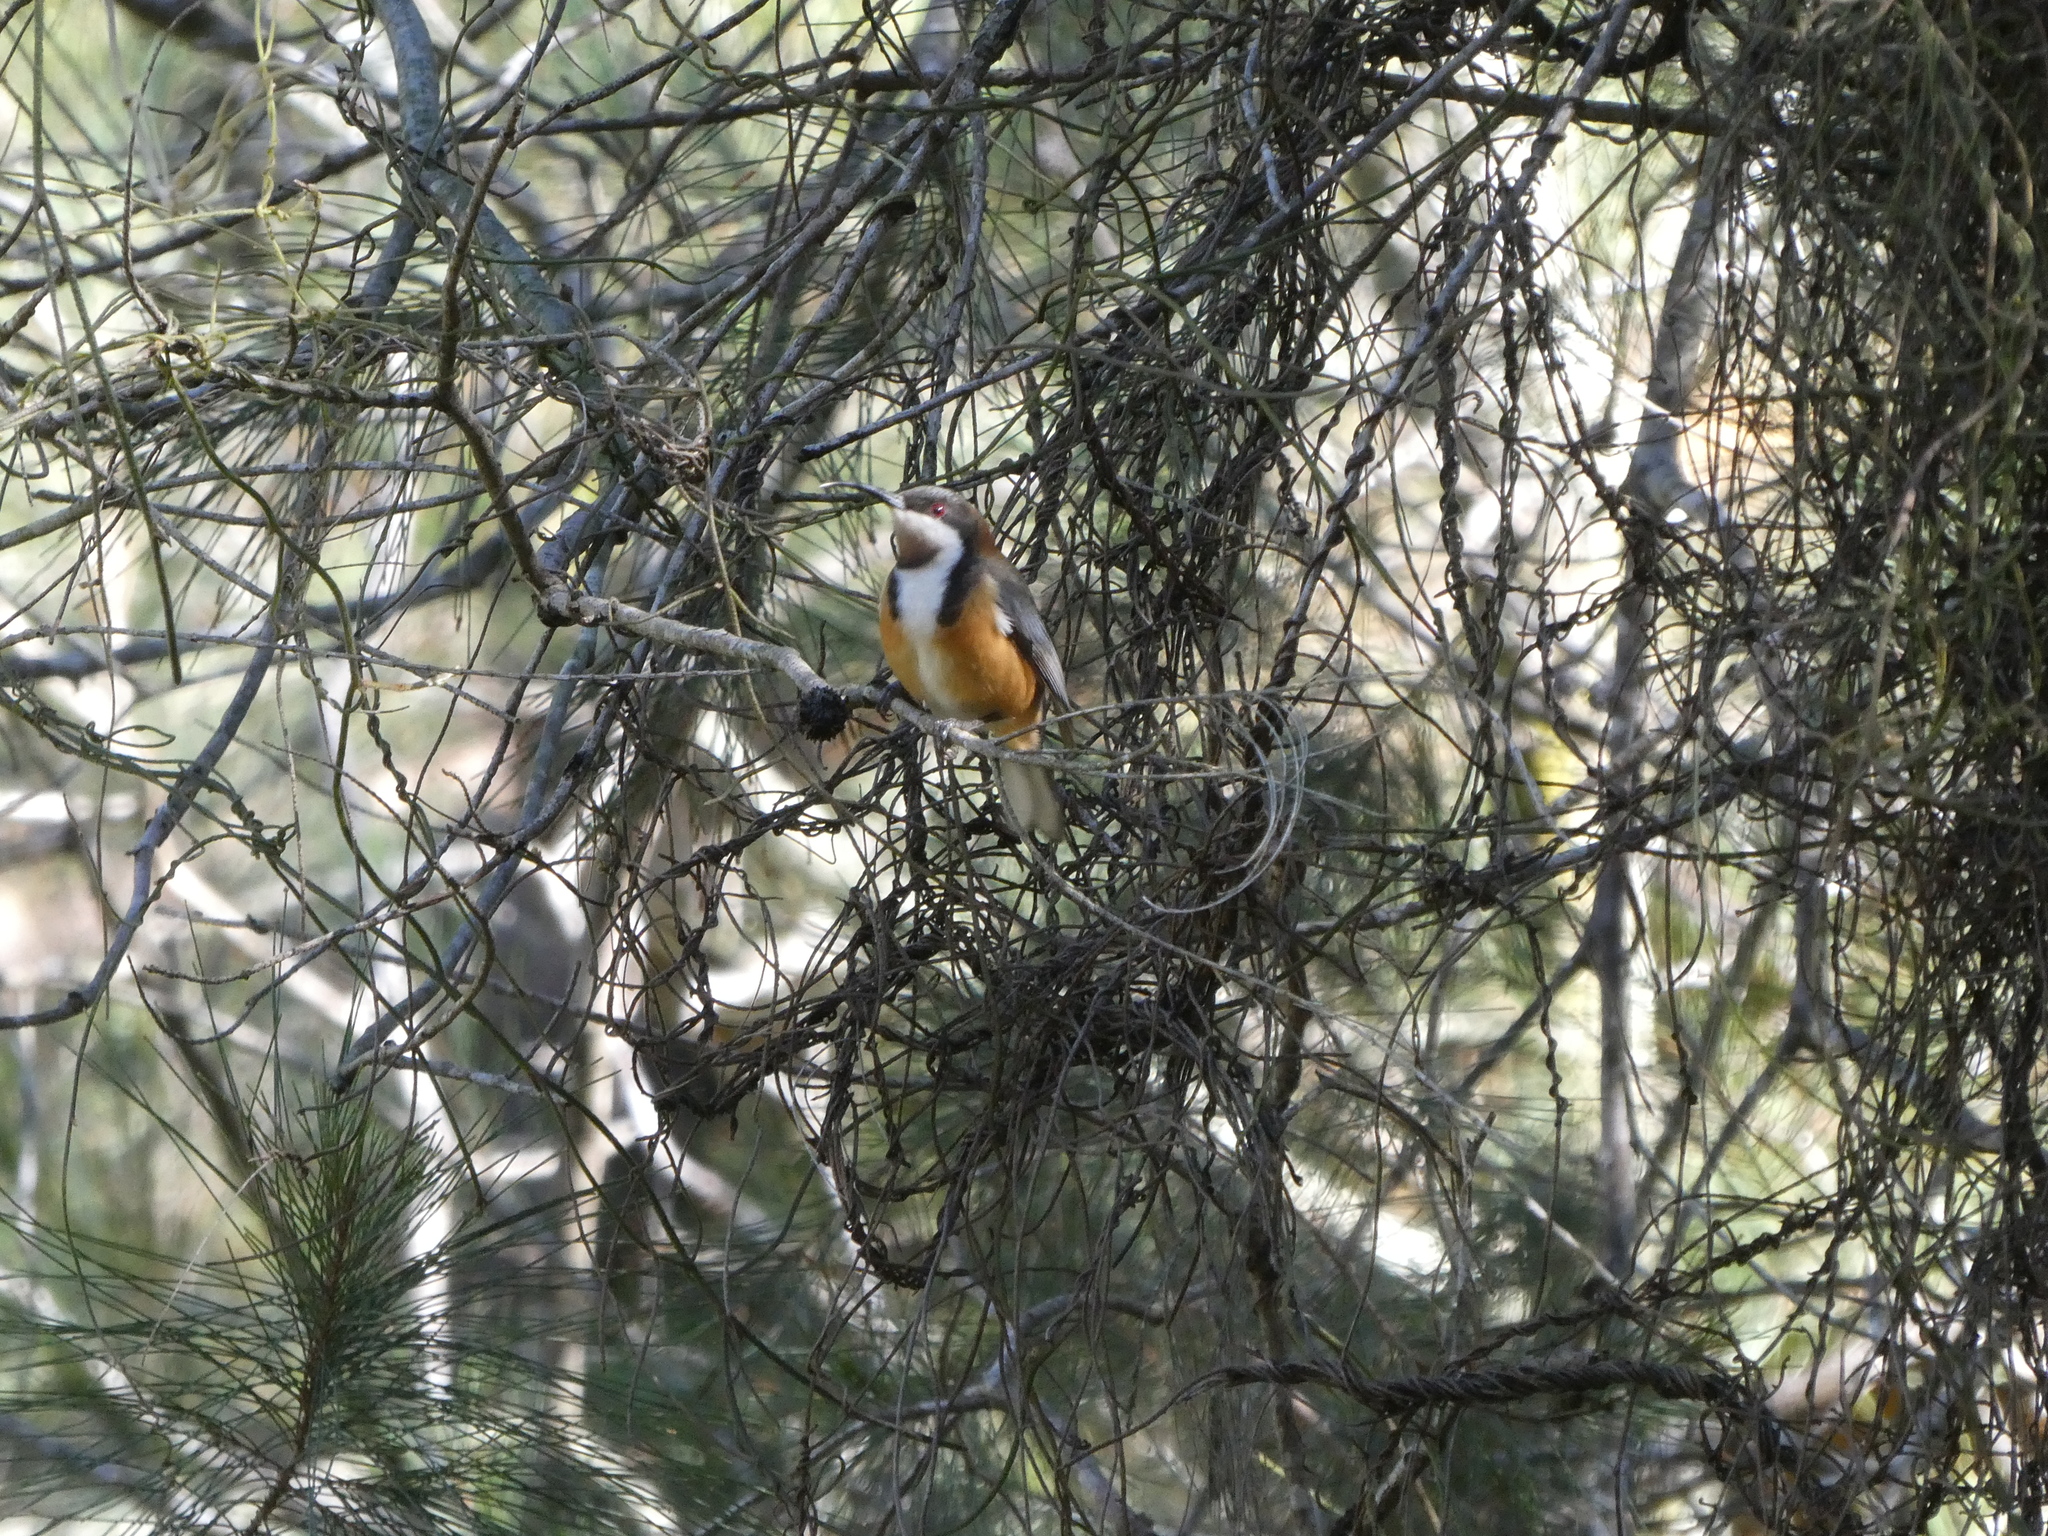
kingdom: Animalia
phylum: Chordata
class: Aves
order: Passeriformes
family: Meliphagidae
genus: Acanthorhynchus
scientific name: Acanthorhynchus tenuirostris
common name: Eastern spinebill
